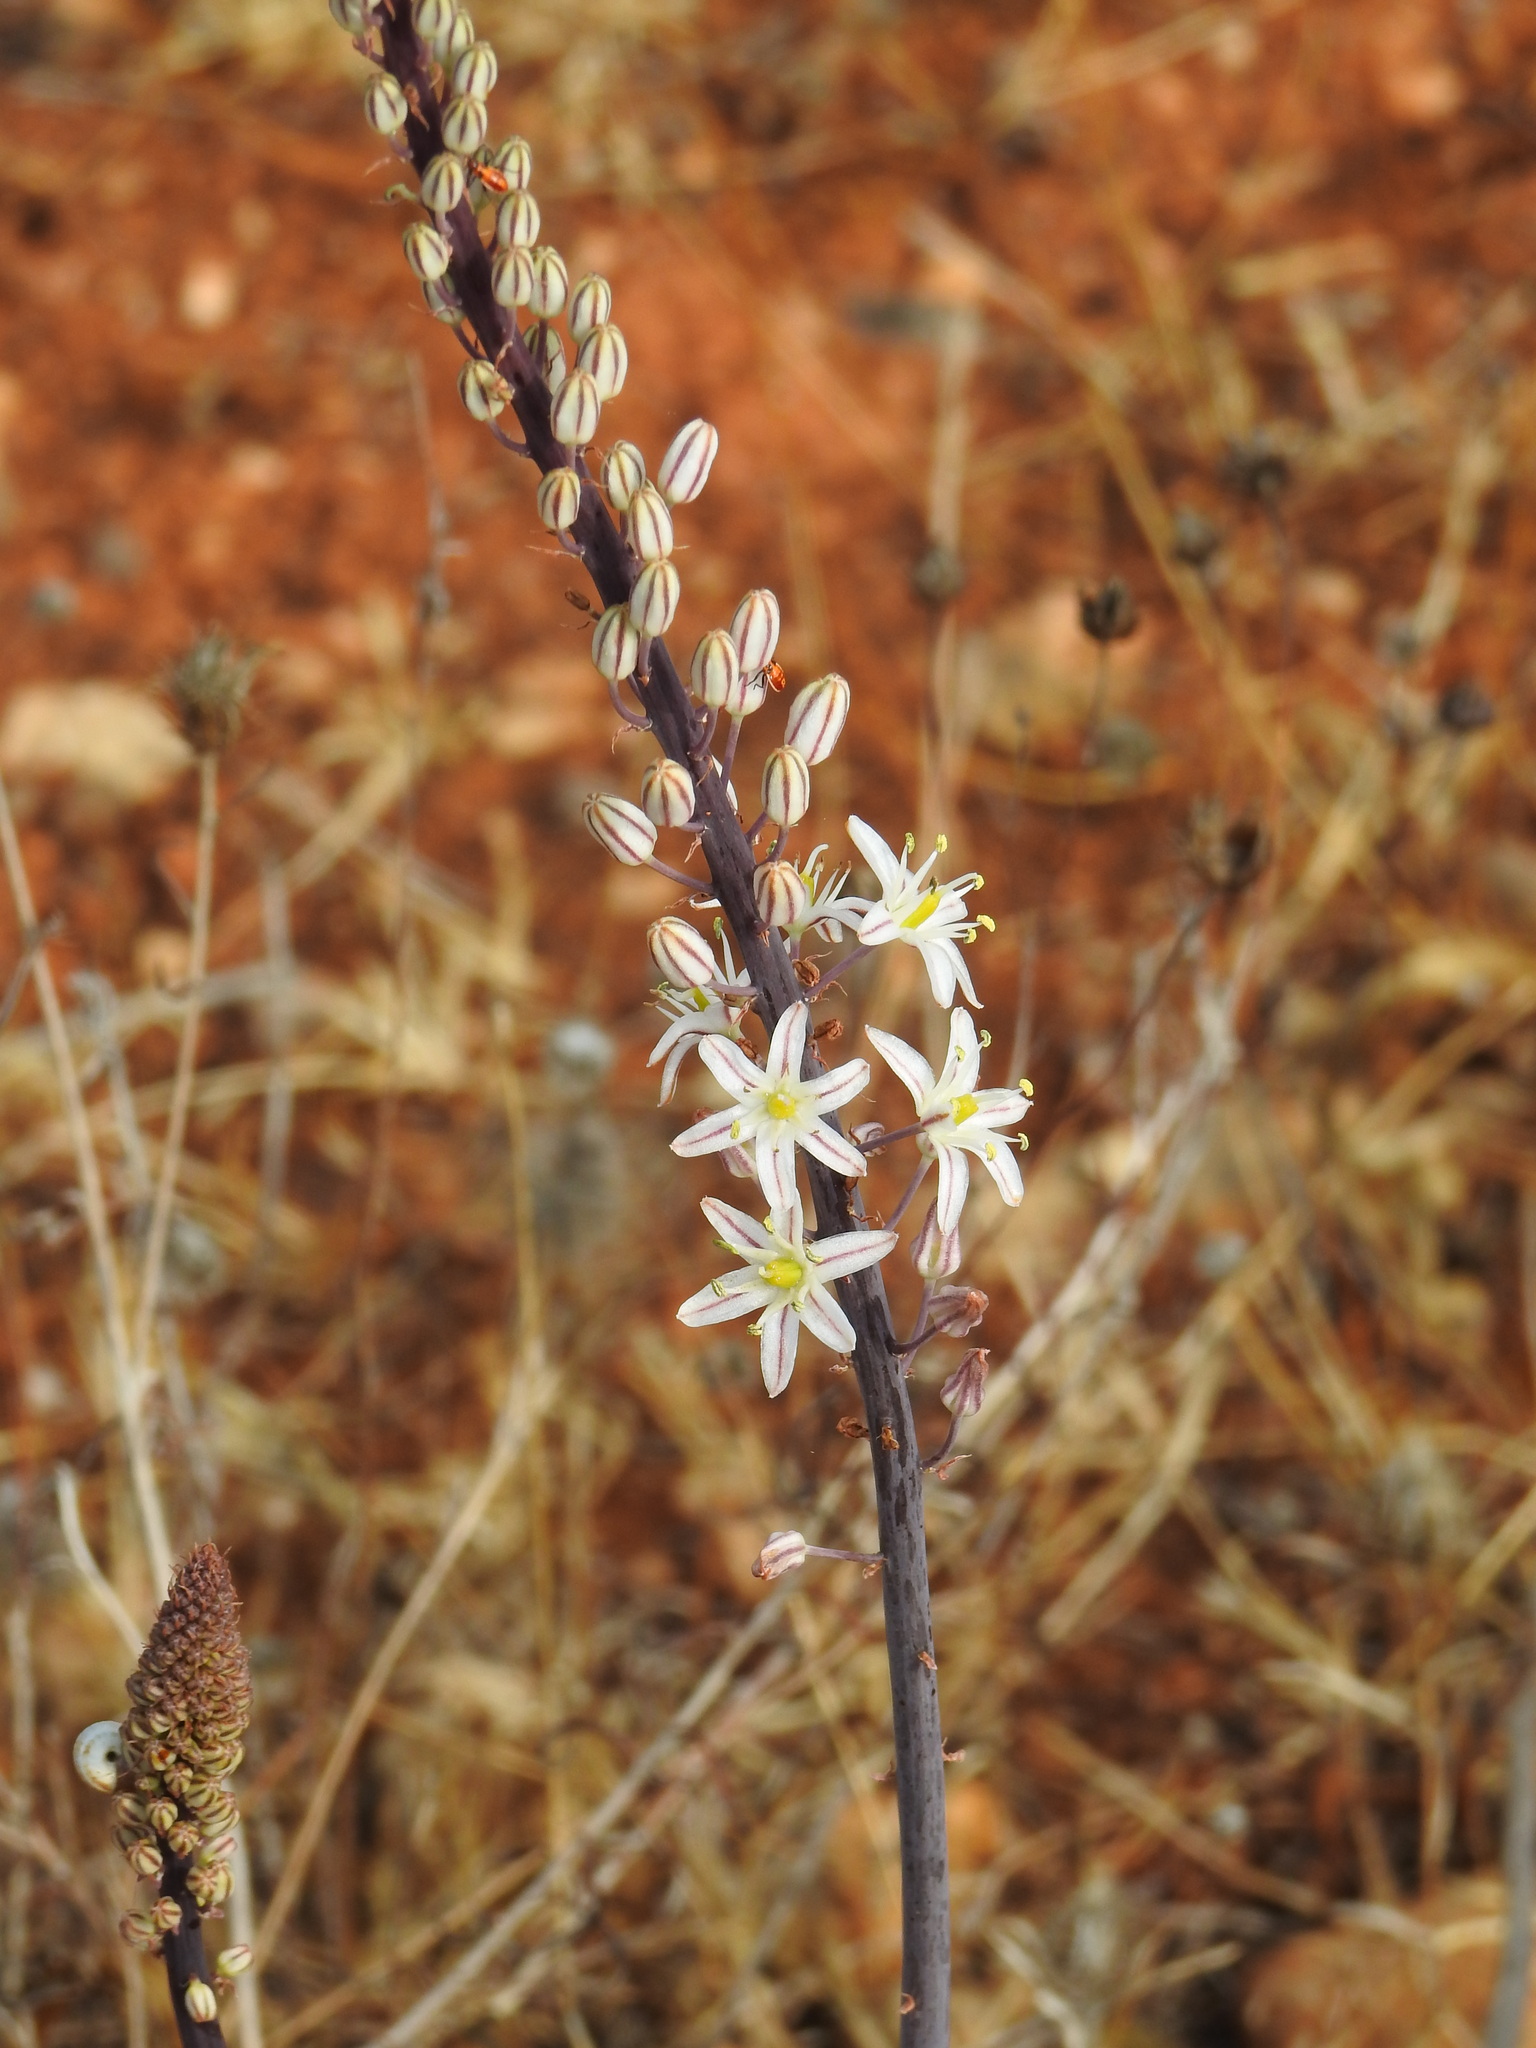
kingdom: Plantae
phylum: Tracheophyta
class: Liliopsida
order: Asparagales
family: Asparagaceae
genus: Drimia
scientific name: Drimia maritima
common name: Maritime squill
